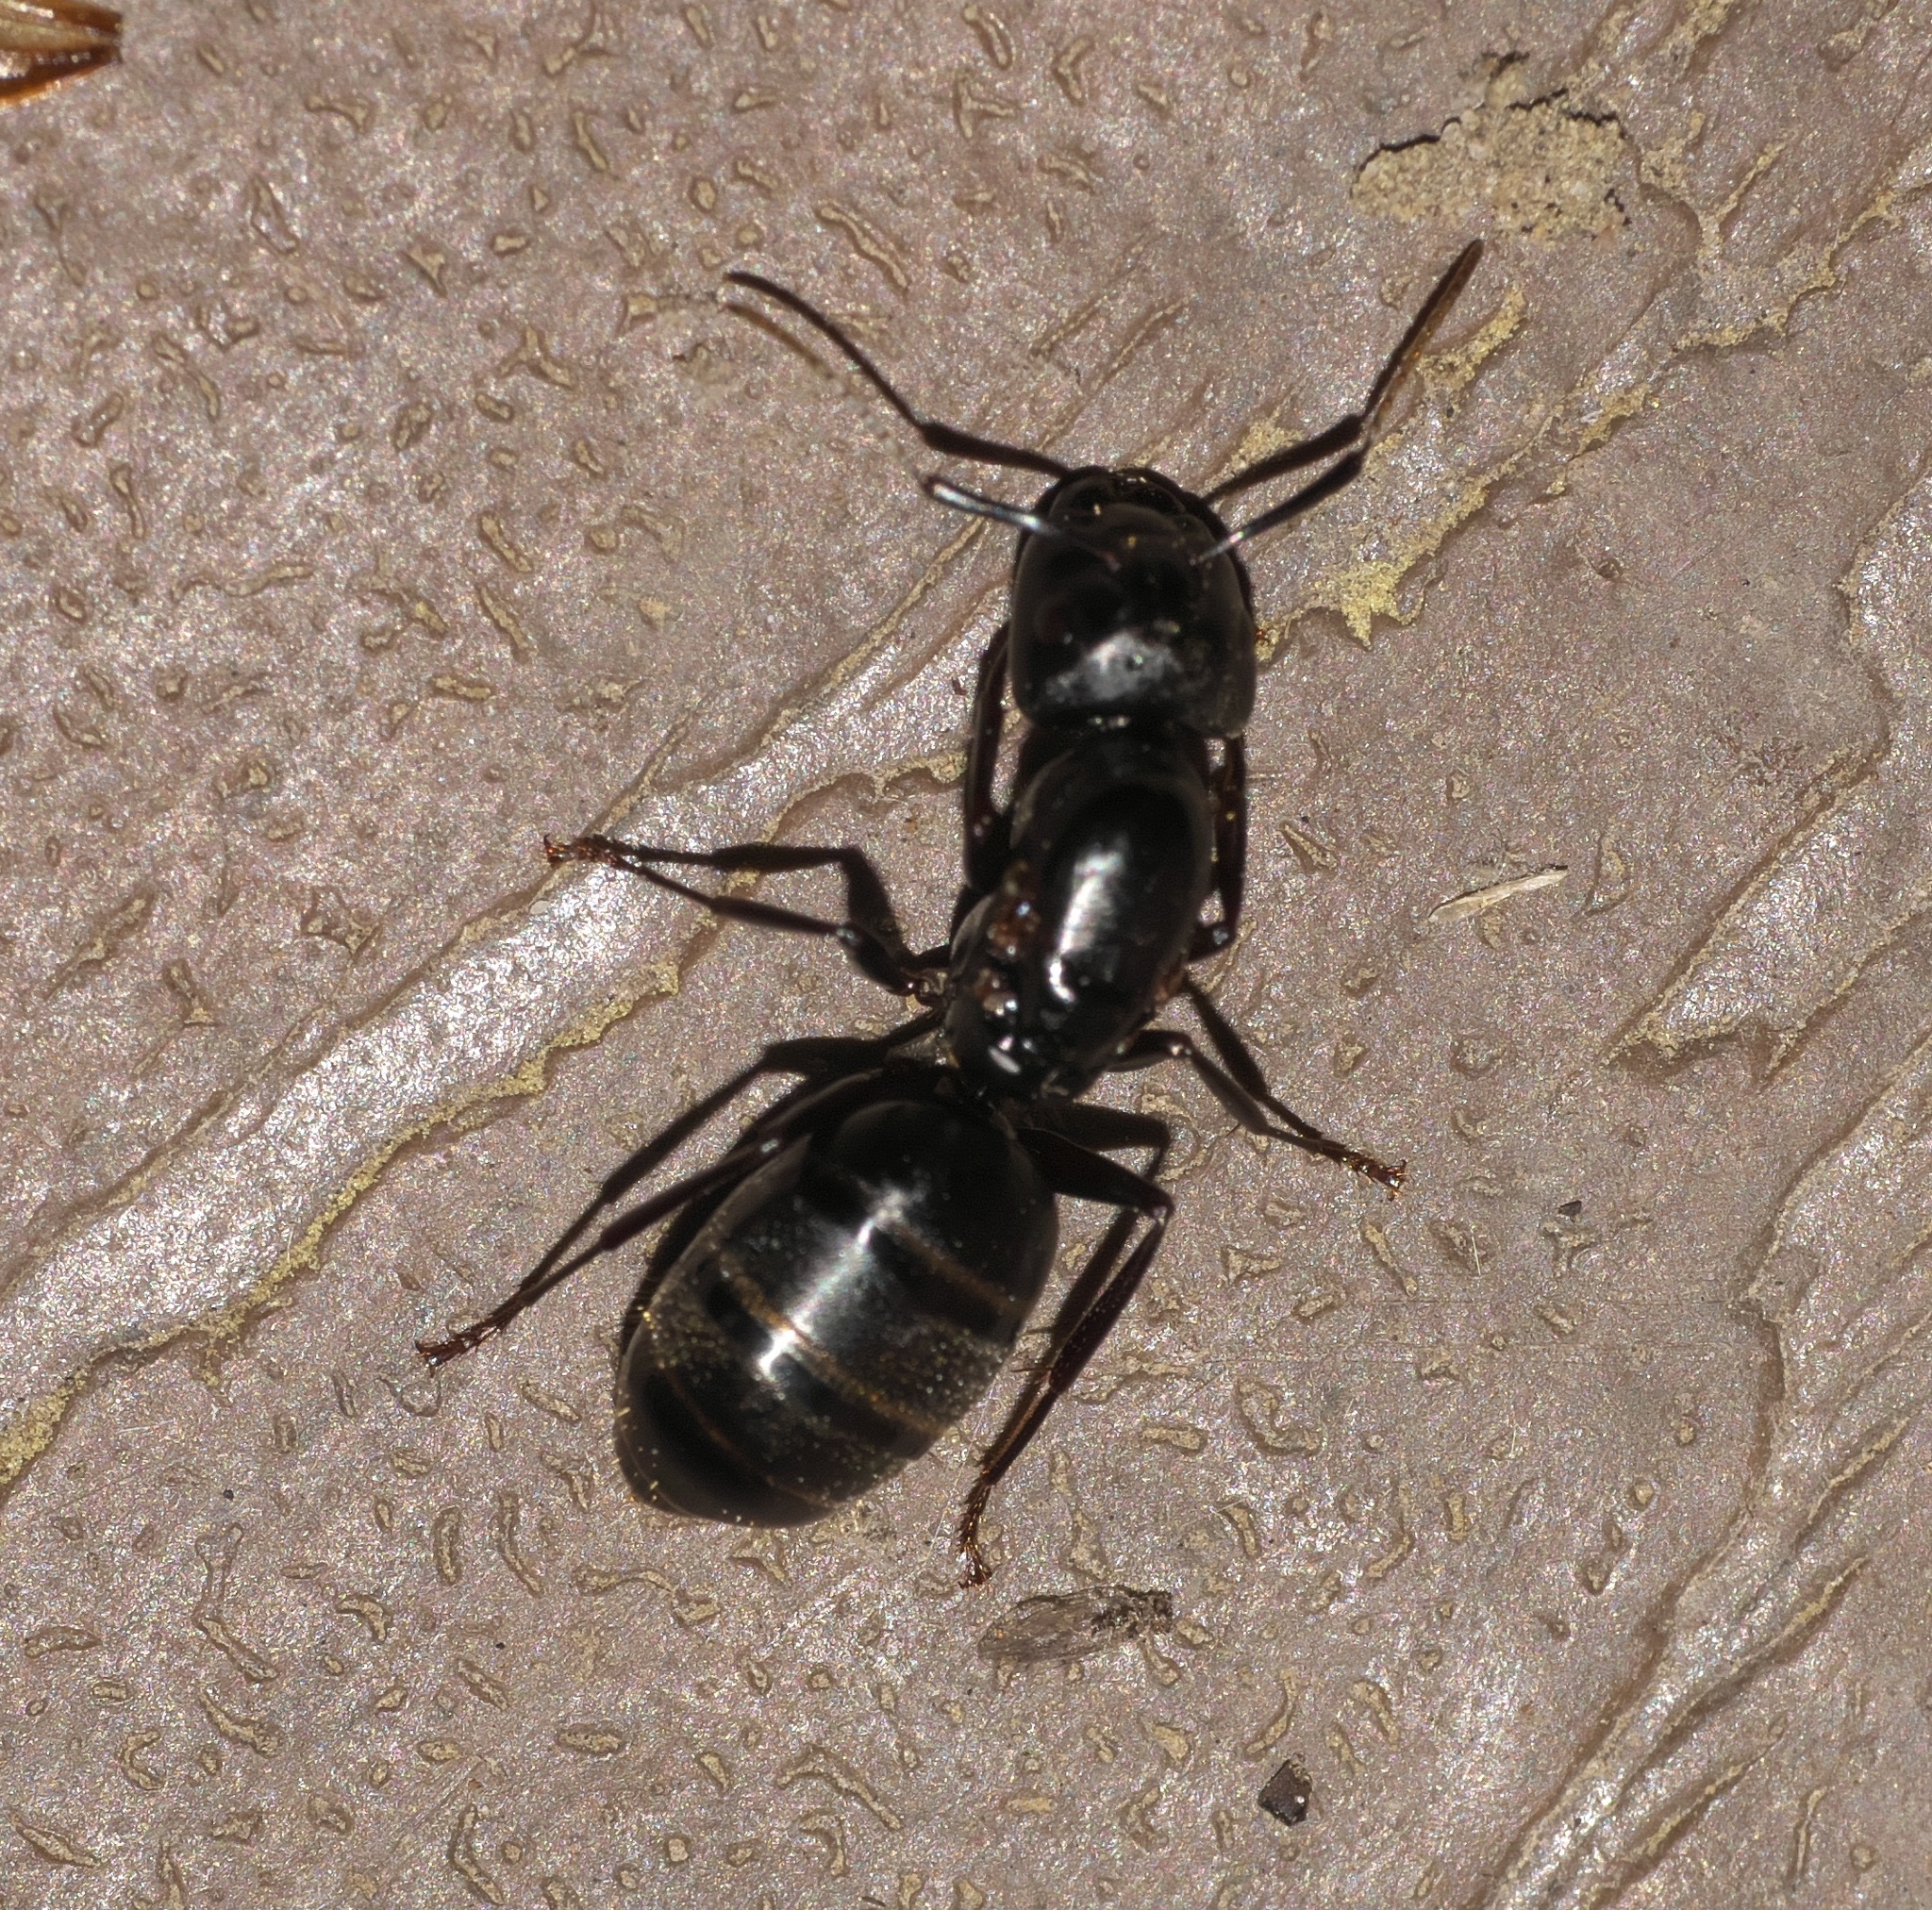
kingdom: Animalia
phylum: Arthropoda
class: Insecta
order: Hymenoptera
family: Formicidae
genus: Camponotus
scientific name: Camponotus pennsylvanicus
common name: Black carpenter ant
